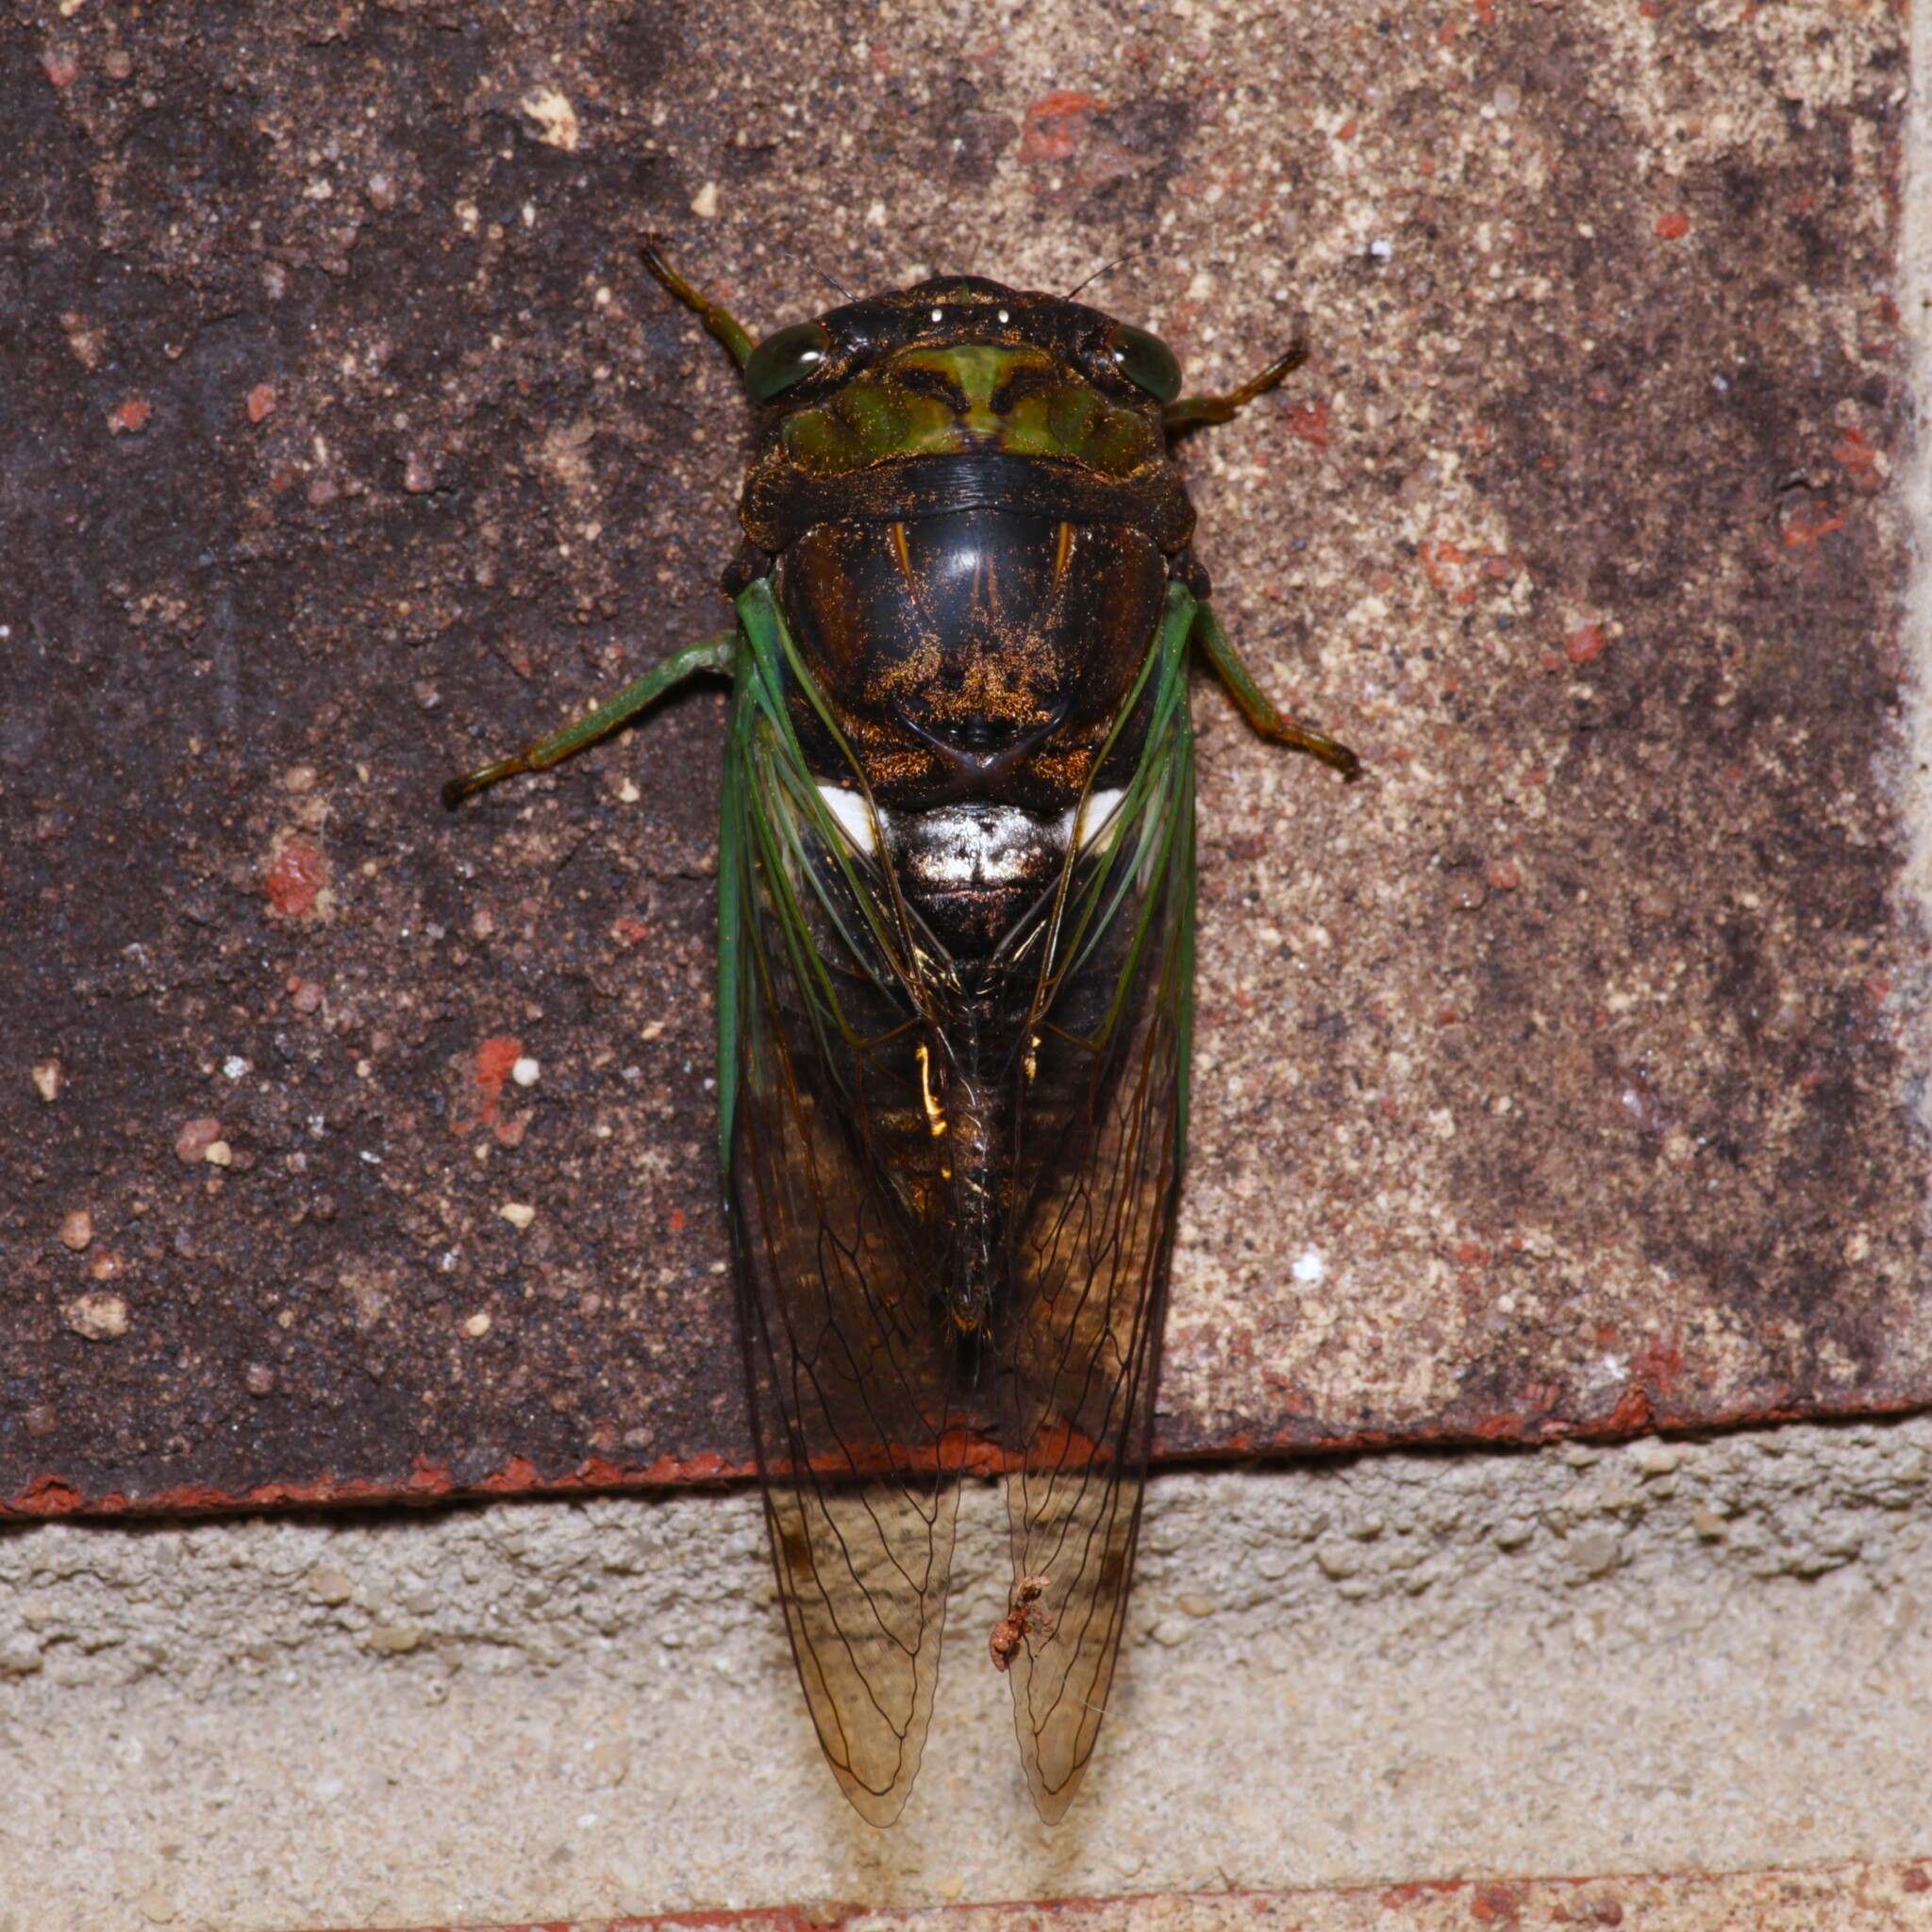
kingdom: Animalia
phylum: Arthropoda
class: Insecta
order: Hemiptera
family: Cicadidae
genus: Neotibicen
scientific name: Neotibicen tibicen
